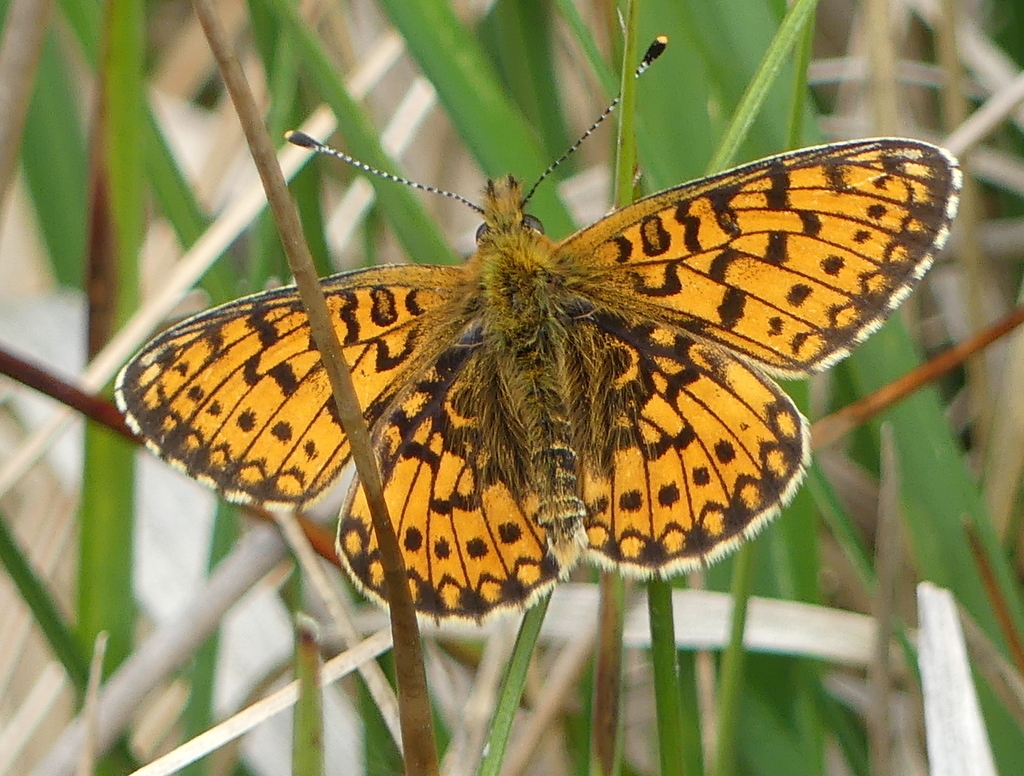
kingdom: Animalia
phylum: Arthropoda
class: Insecta
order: Lepidoptera
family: Nymphalidae
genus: Boloria
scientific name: Boloria selene
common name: Small pearl-bordered fritillary
